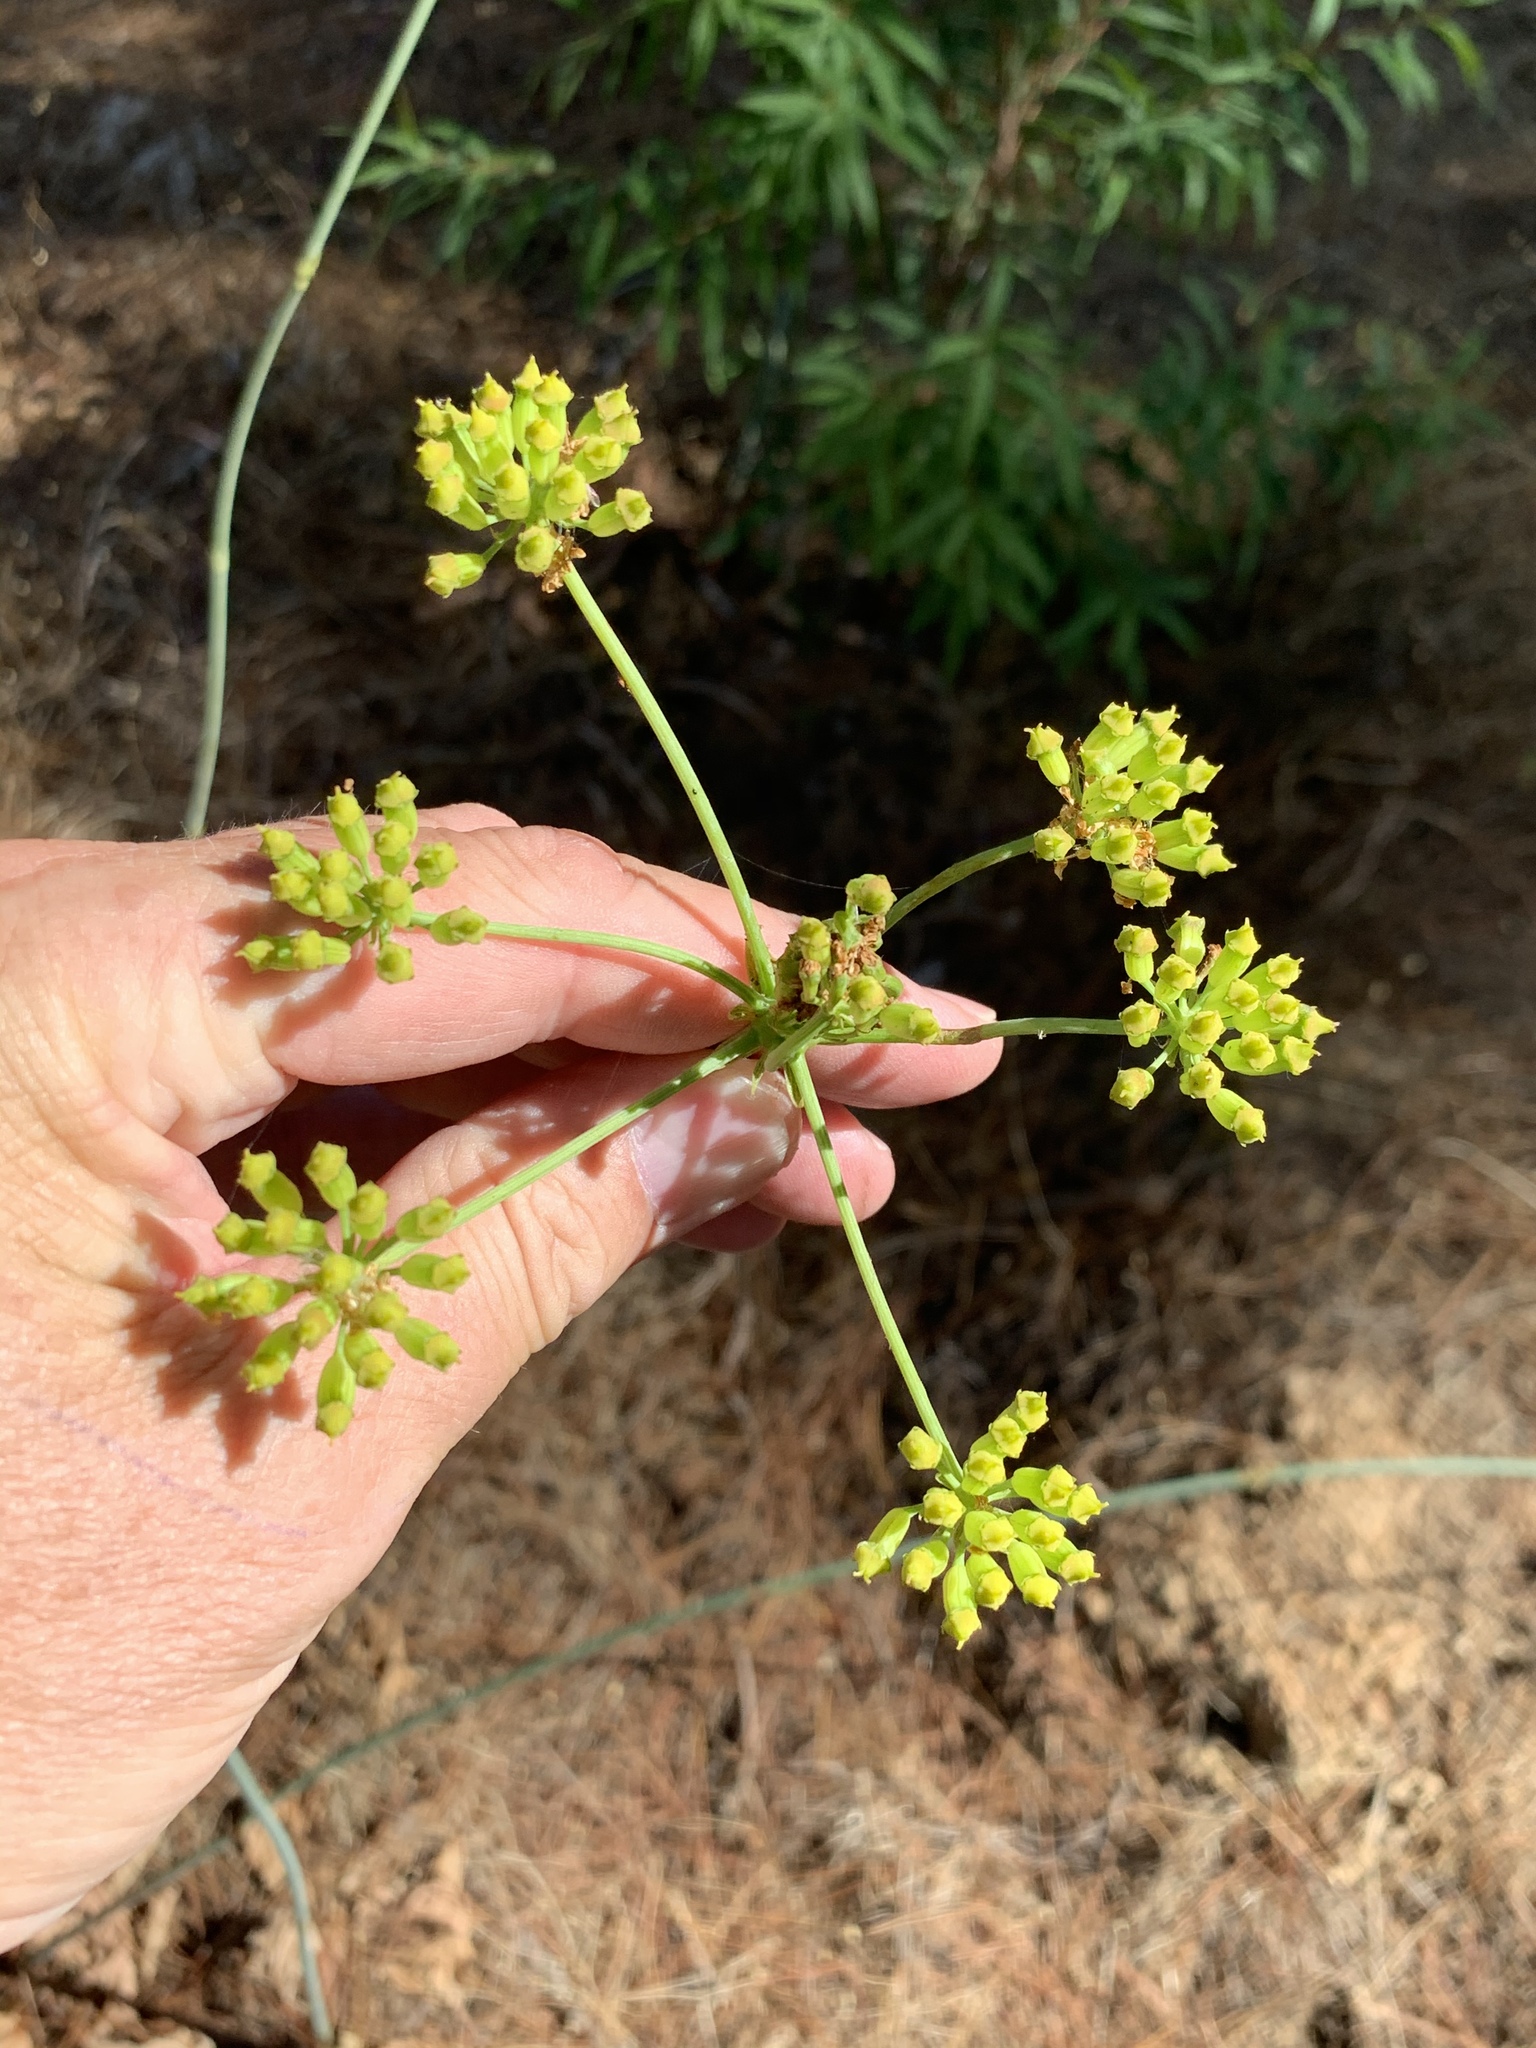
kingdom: Plantae
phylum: Tracheophyta
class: Magnoliopsida
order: Apiales
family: Apiaceae
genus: Lichtensteinia
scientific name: Lichtensteinia lacera
